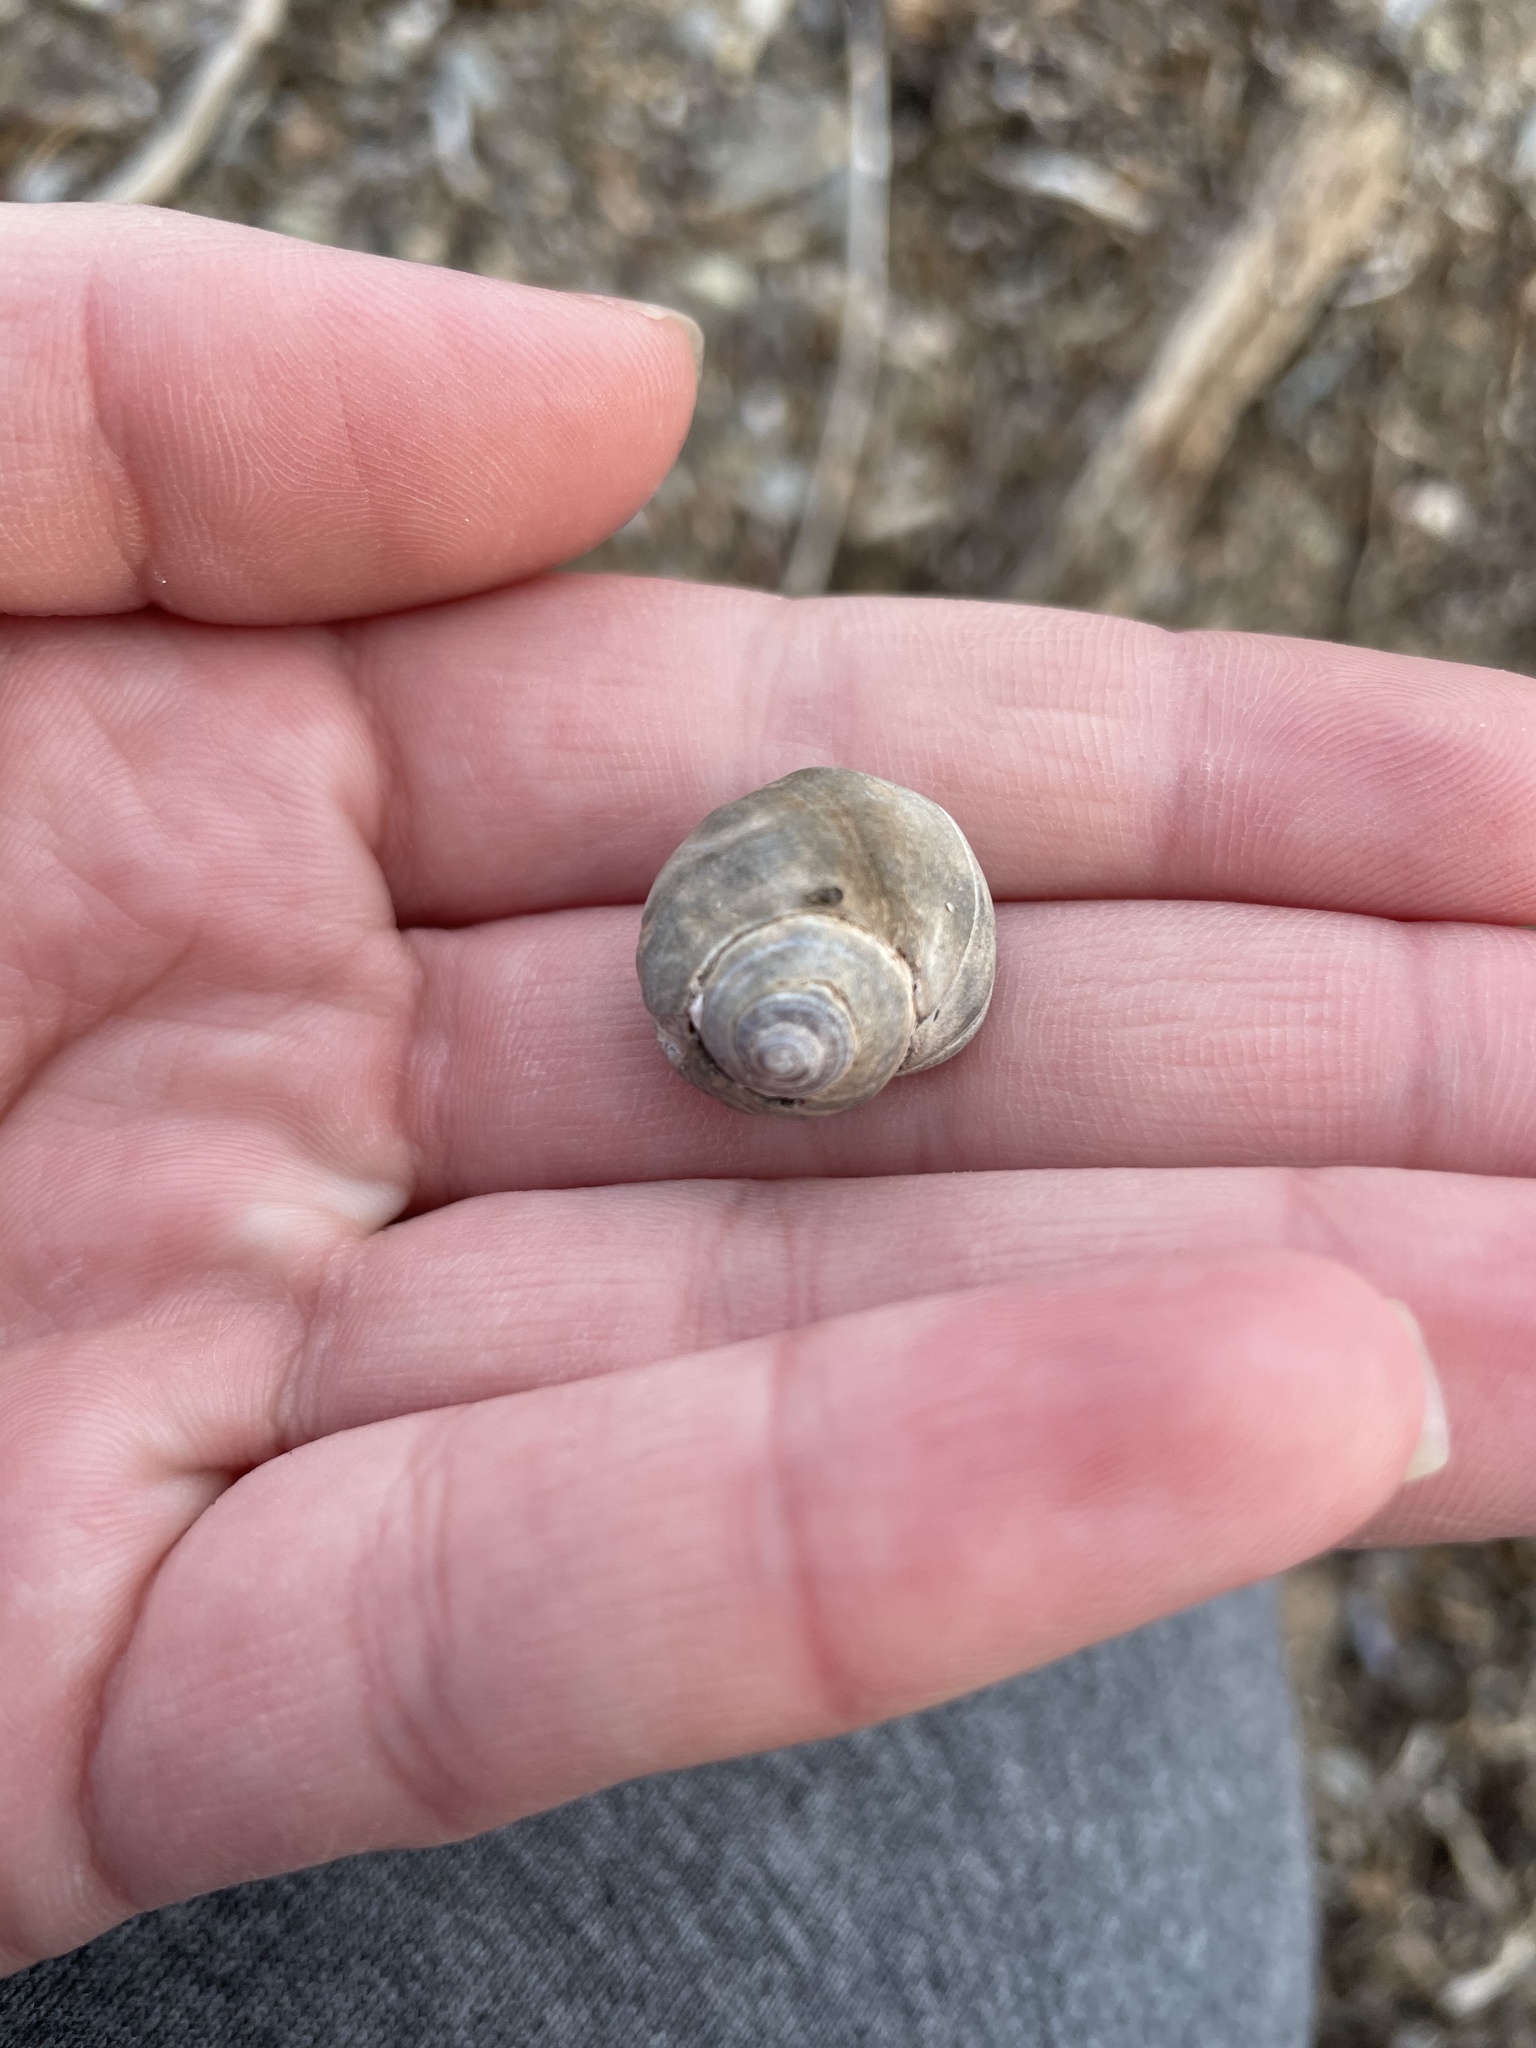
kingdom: Animalia
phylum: Mollusca
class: Gastropoda
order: Littorinimorpha
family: Littorinidae
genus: Littorina
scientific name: Littorina littorea
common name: Common periwinkle
